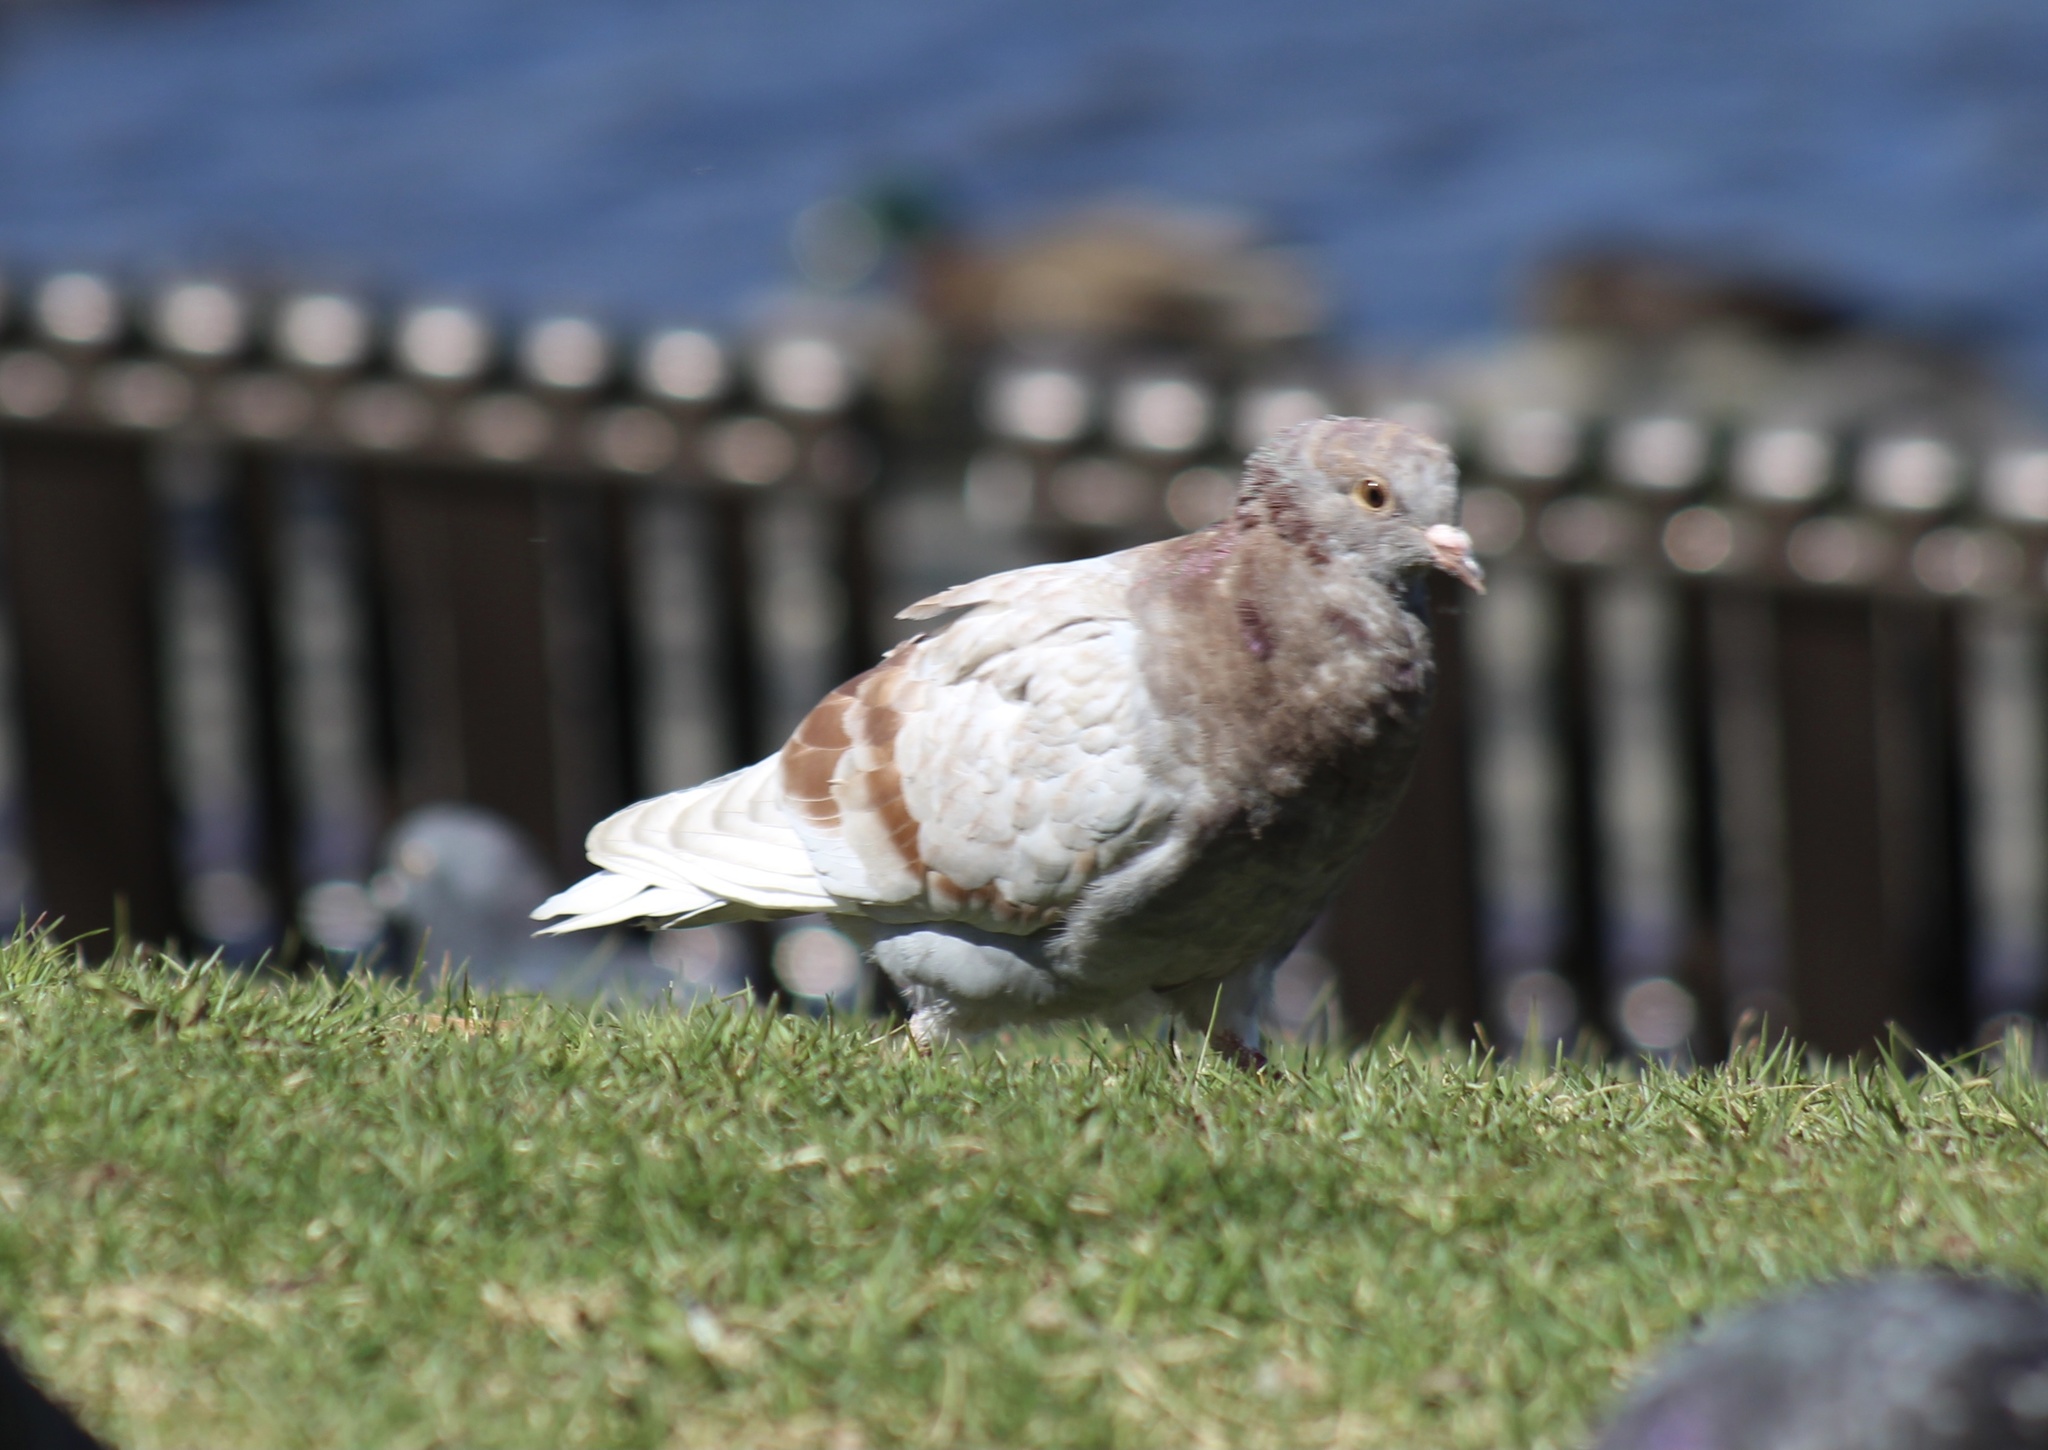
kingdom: Animalia
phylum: Chordata
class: Aves
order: Columbiformes
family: Columbidae
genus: Columba
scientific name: Columba livia
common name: Rock pigeon
